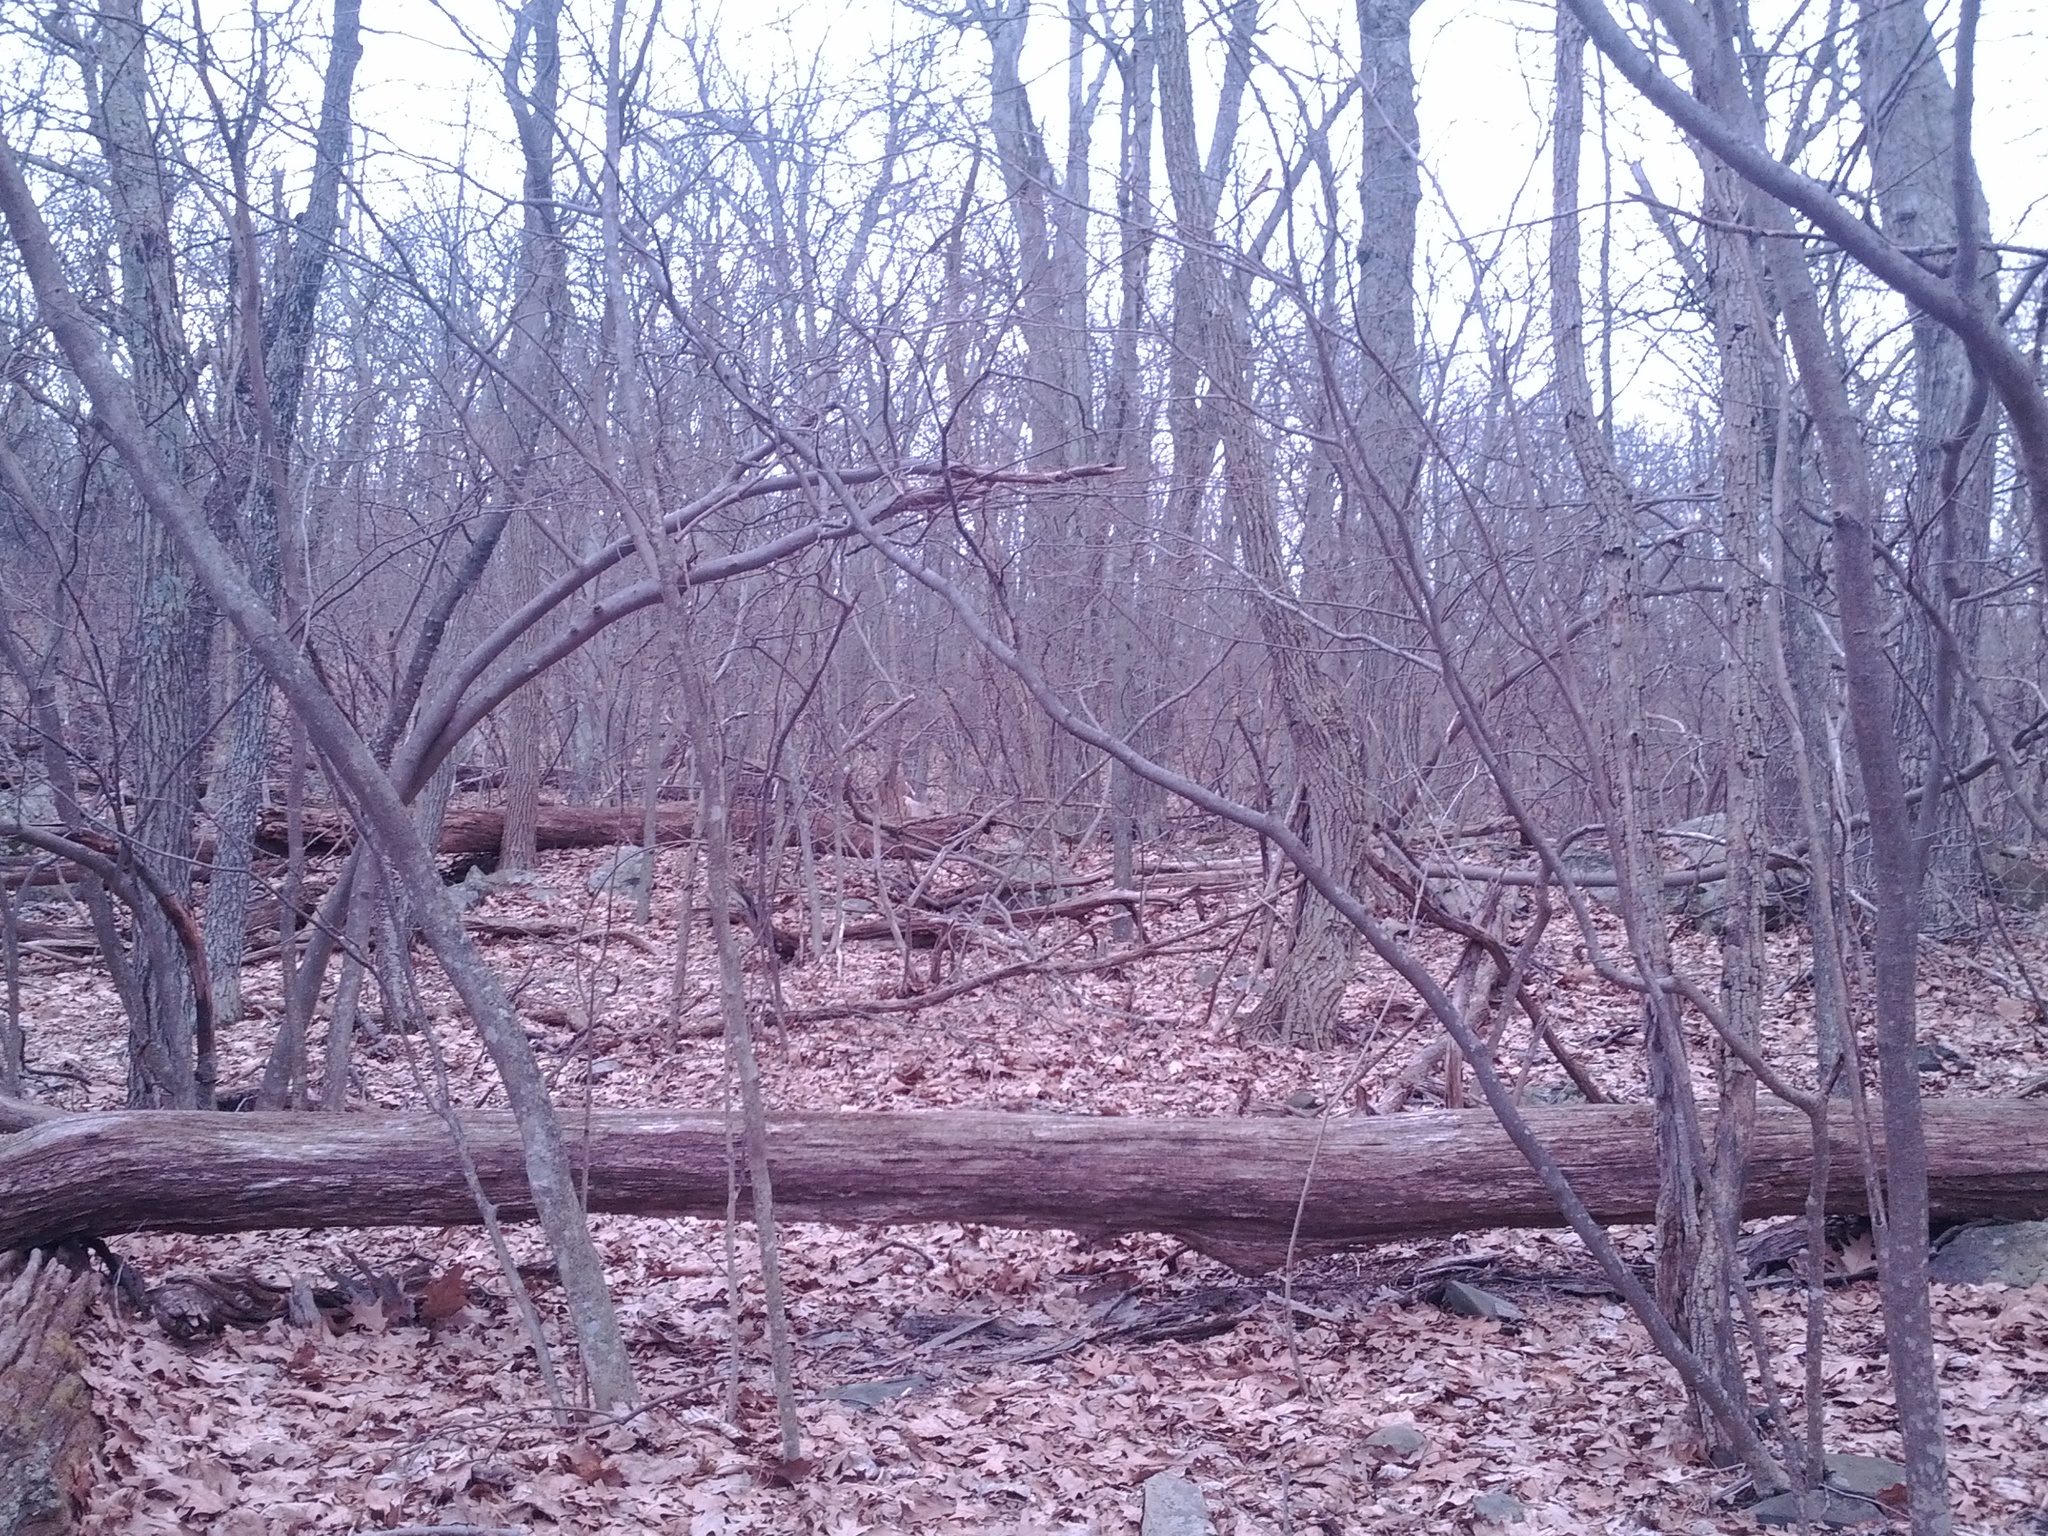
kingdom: Animalia
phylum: Chordata
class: Mammalia
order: Artiodactyla
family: Cervidae
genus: Odocoileus
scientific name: Odocoileus virginianus
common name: White-tailed deer
